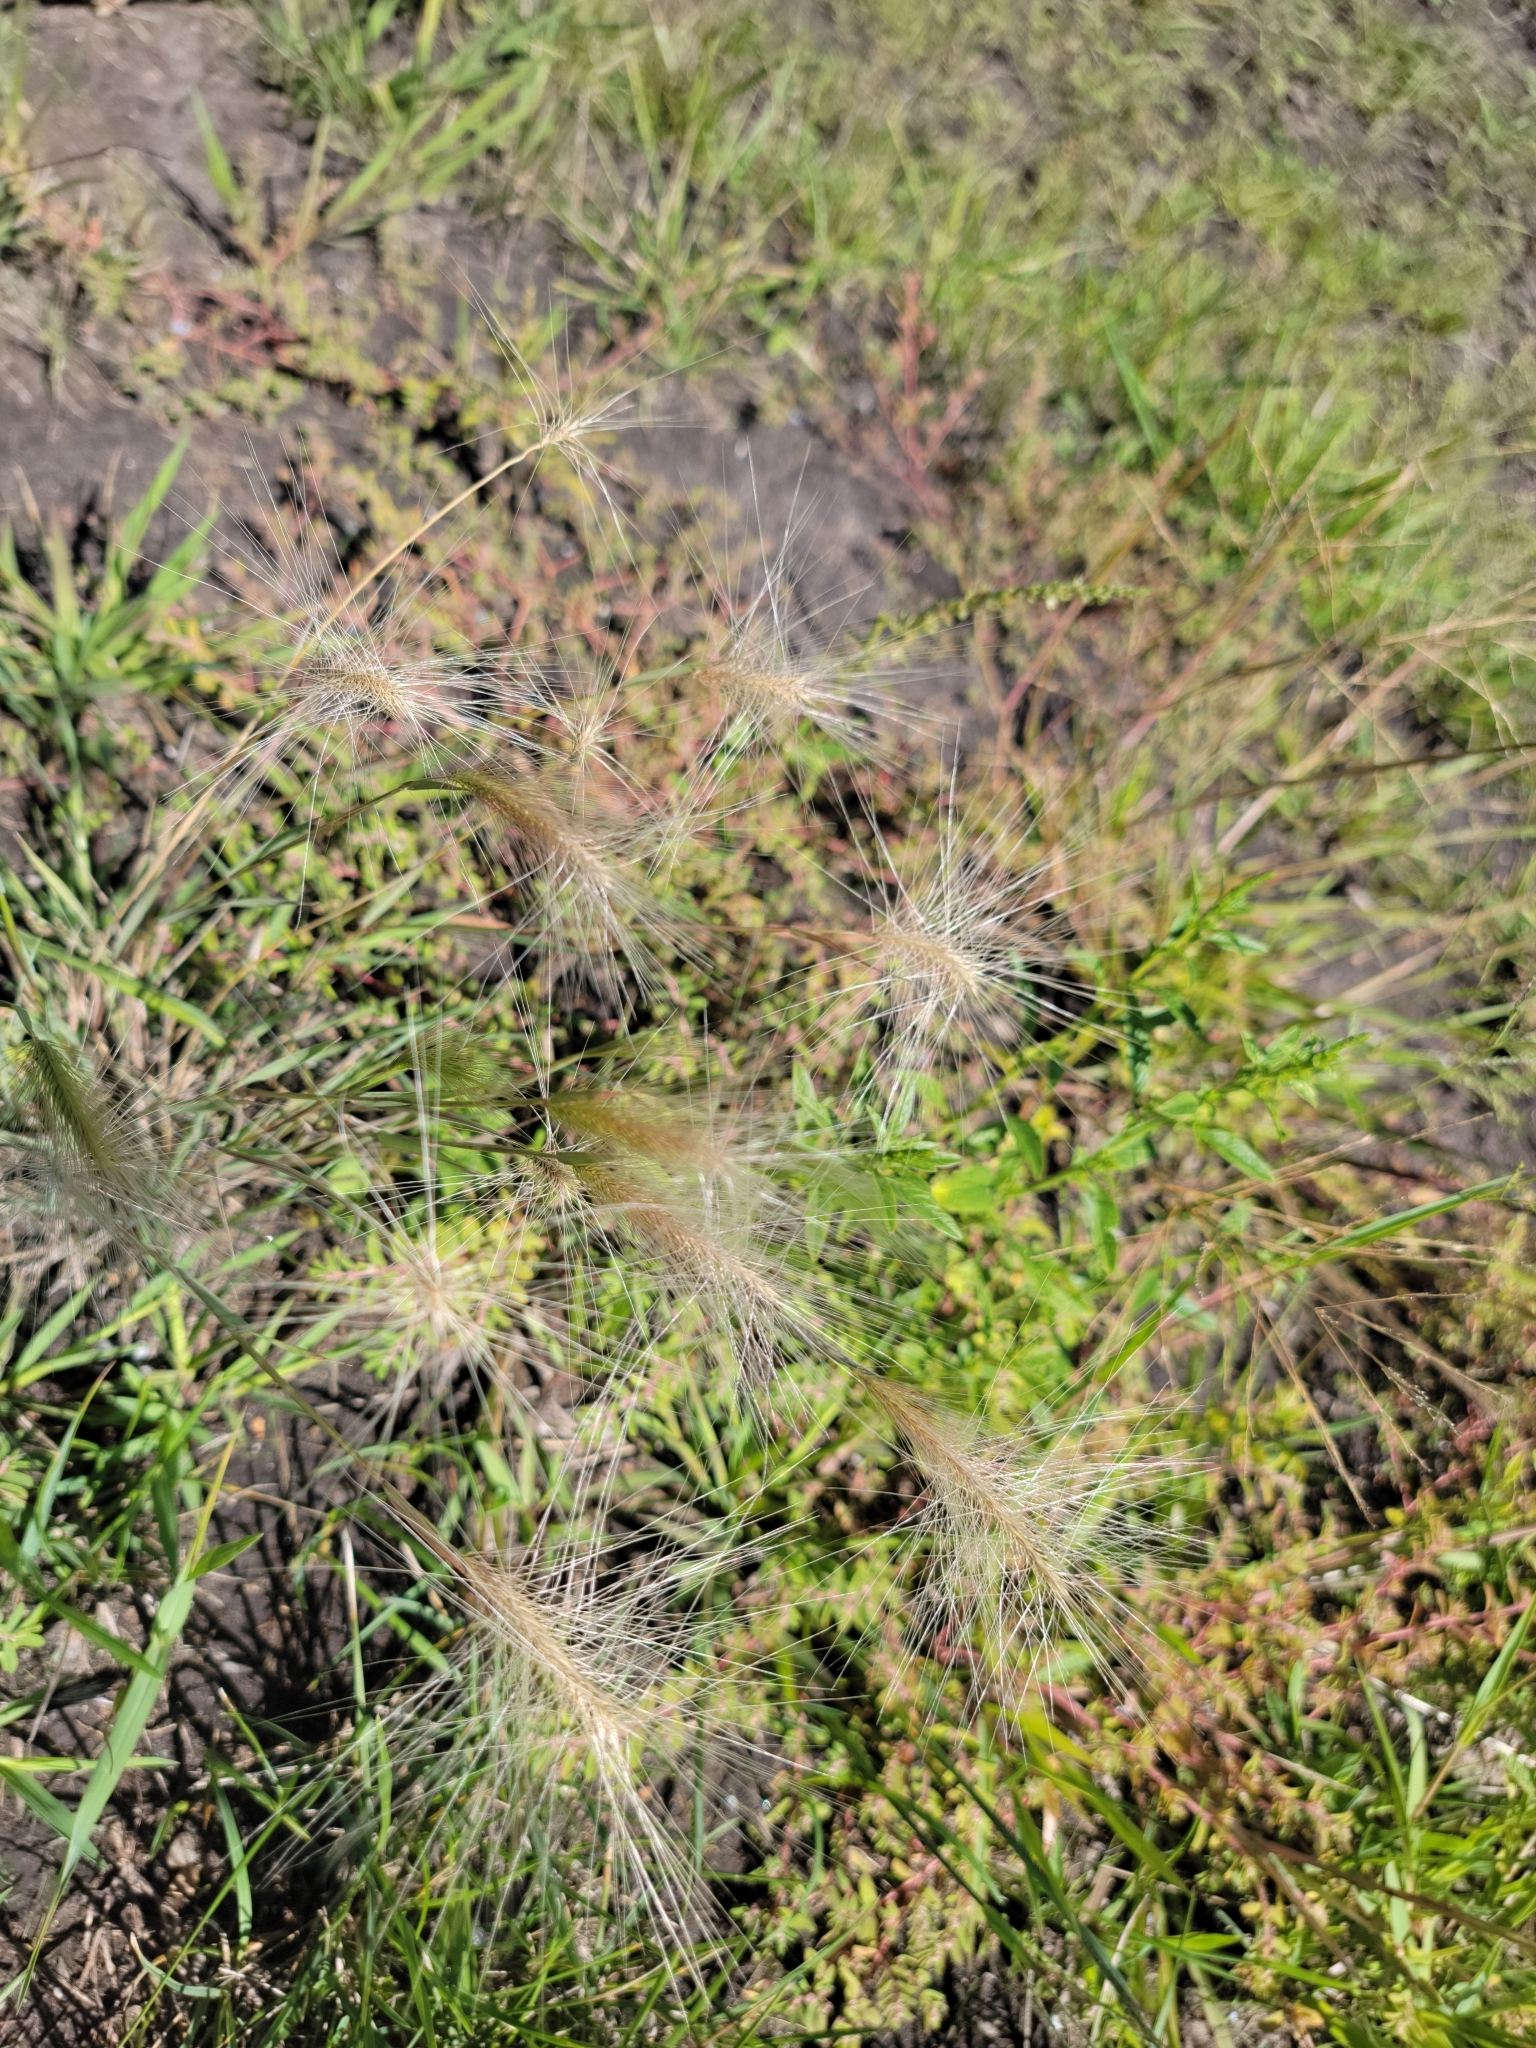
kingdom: Plantae
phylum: Tracheophyta
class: Liliopsida
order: Poales
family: Poaceae
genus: Hordeum
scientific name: Hordeum jubatum
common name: Foxtail barley
